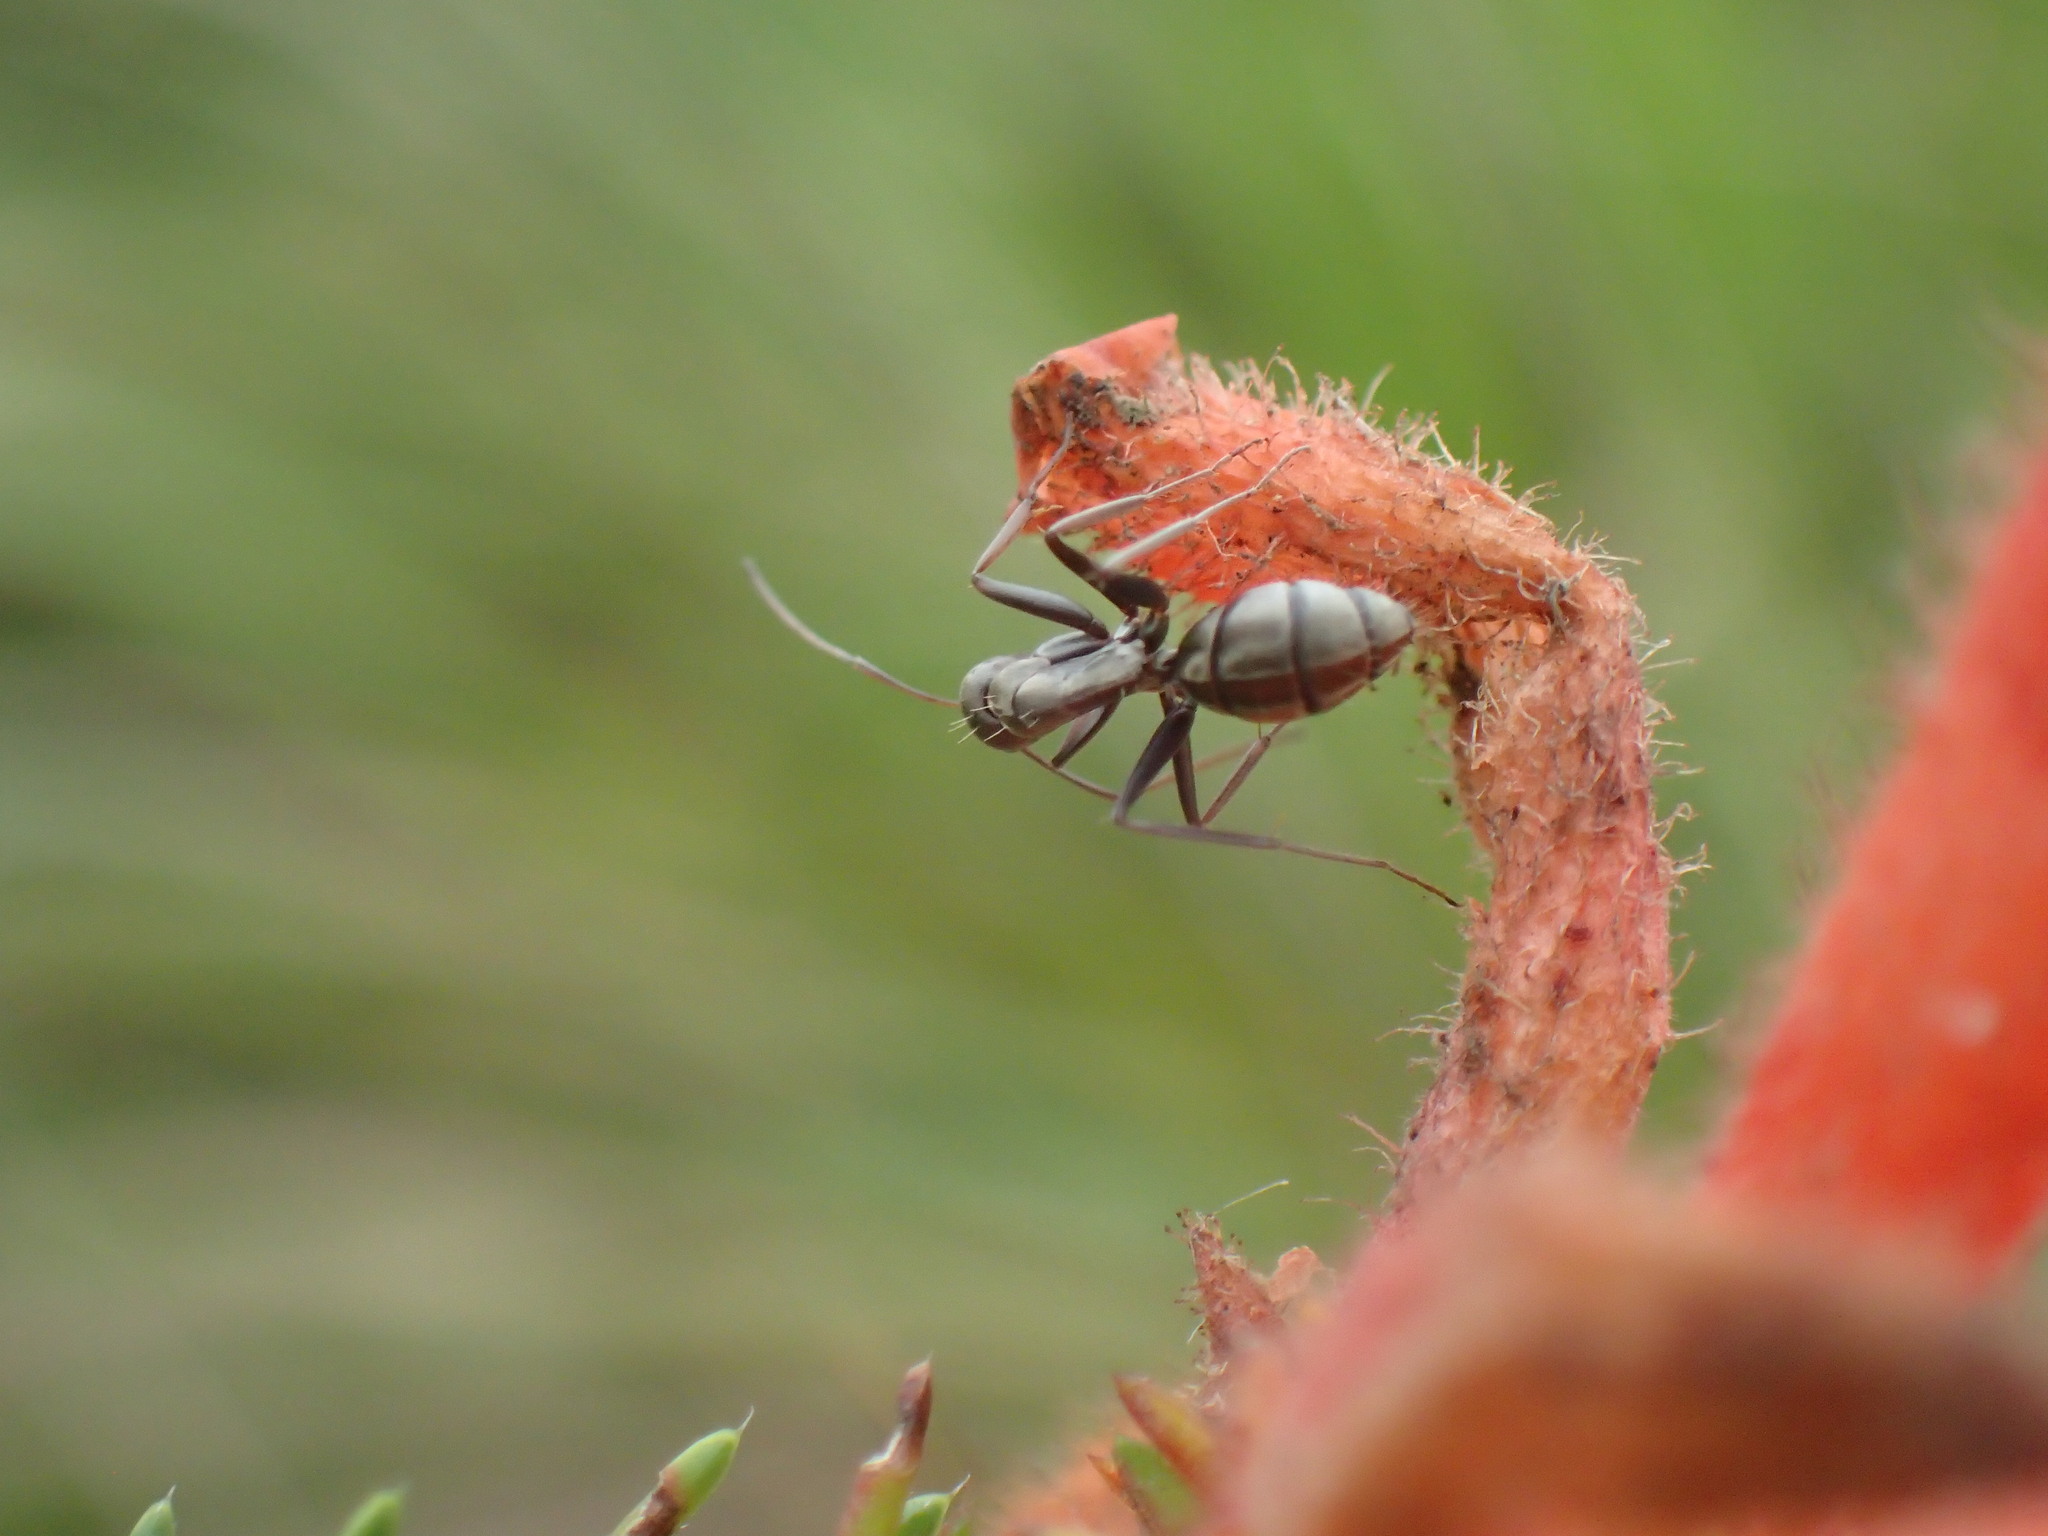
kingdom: Animalia
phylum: Arthropoda
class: Insecta
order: Hymenoptera
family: Formicidae
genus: Camponotus
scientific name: Camponotus vestitus
